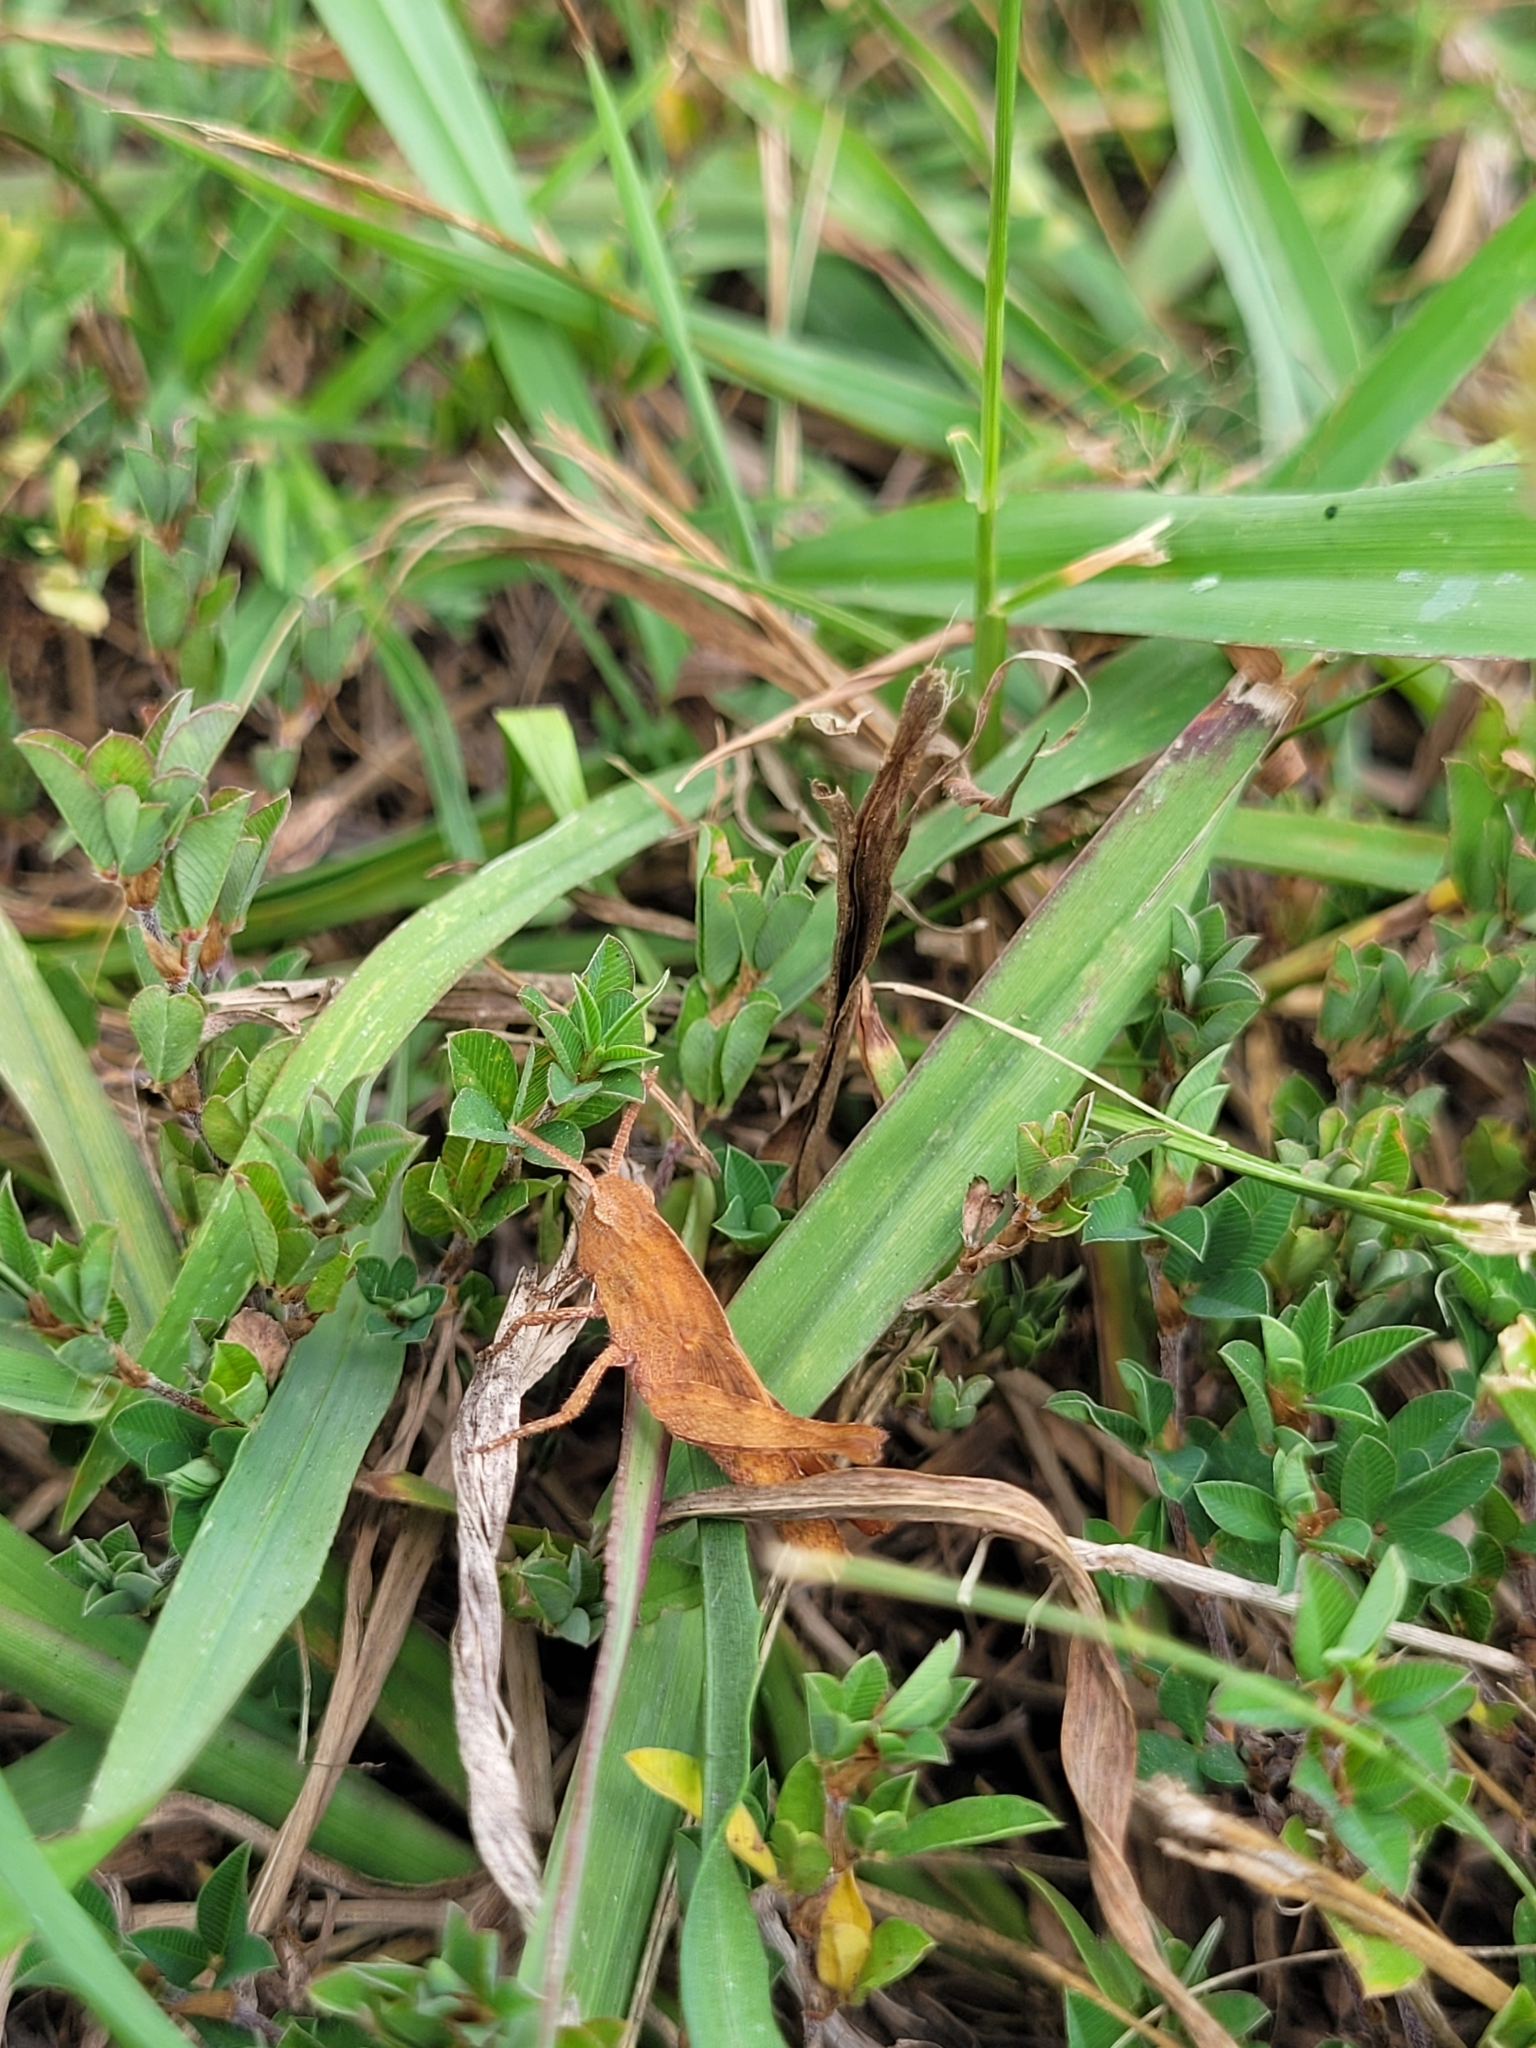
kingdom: Animalia
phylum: Arthropoda
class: Insecta
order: Orthoptera
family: Acrididae
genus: Chortophaga
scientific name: Chortophaga viridifasciata
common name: Green-striped grasshopper
